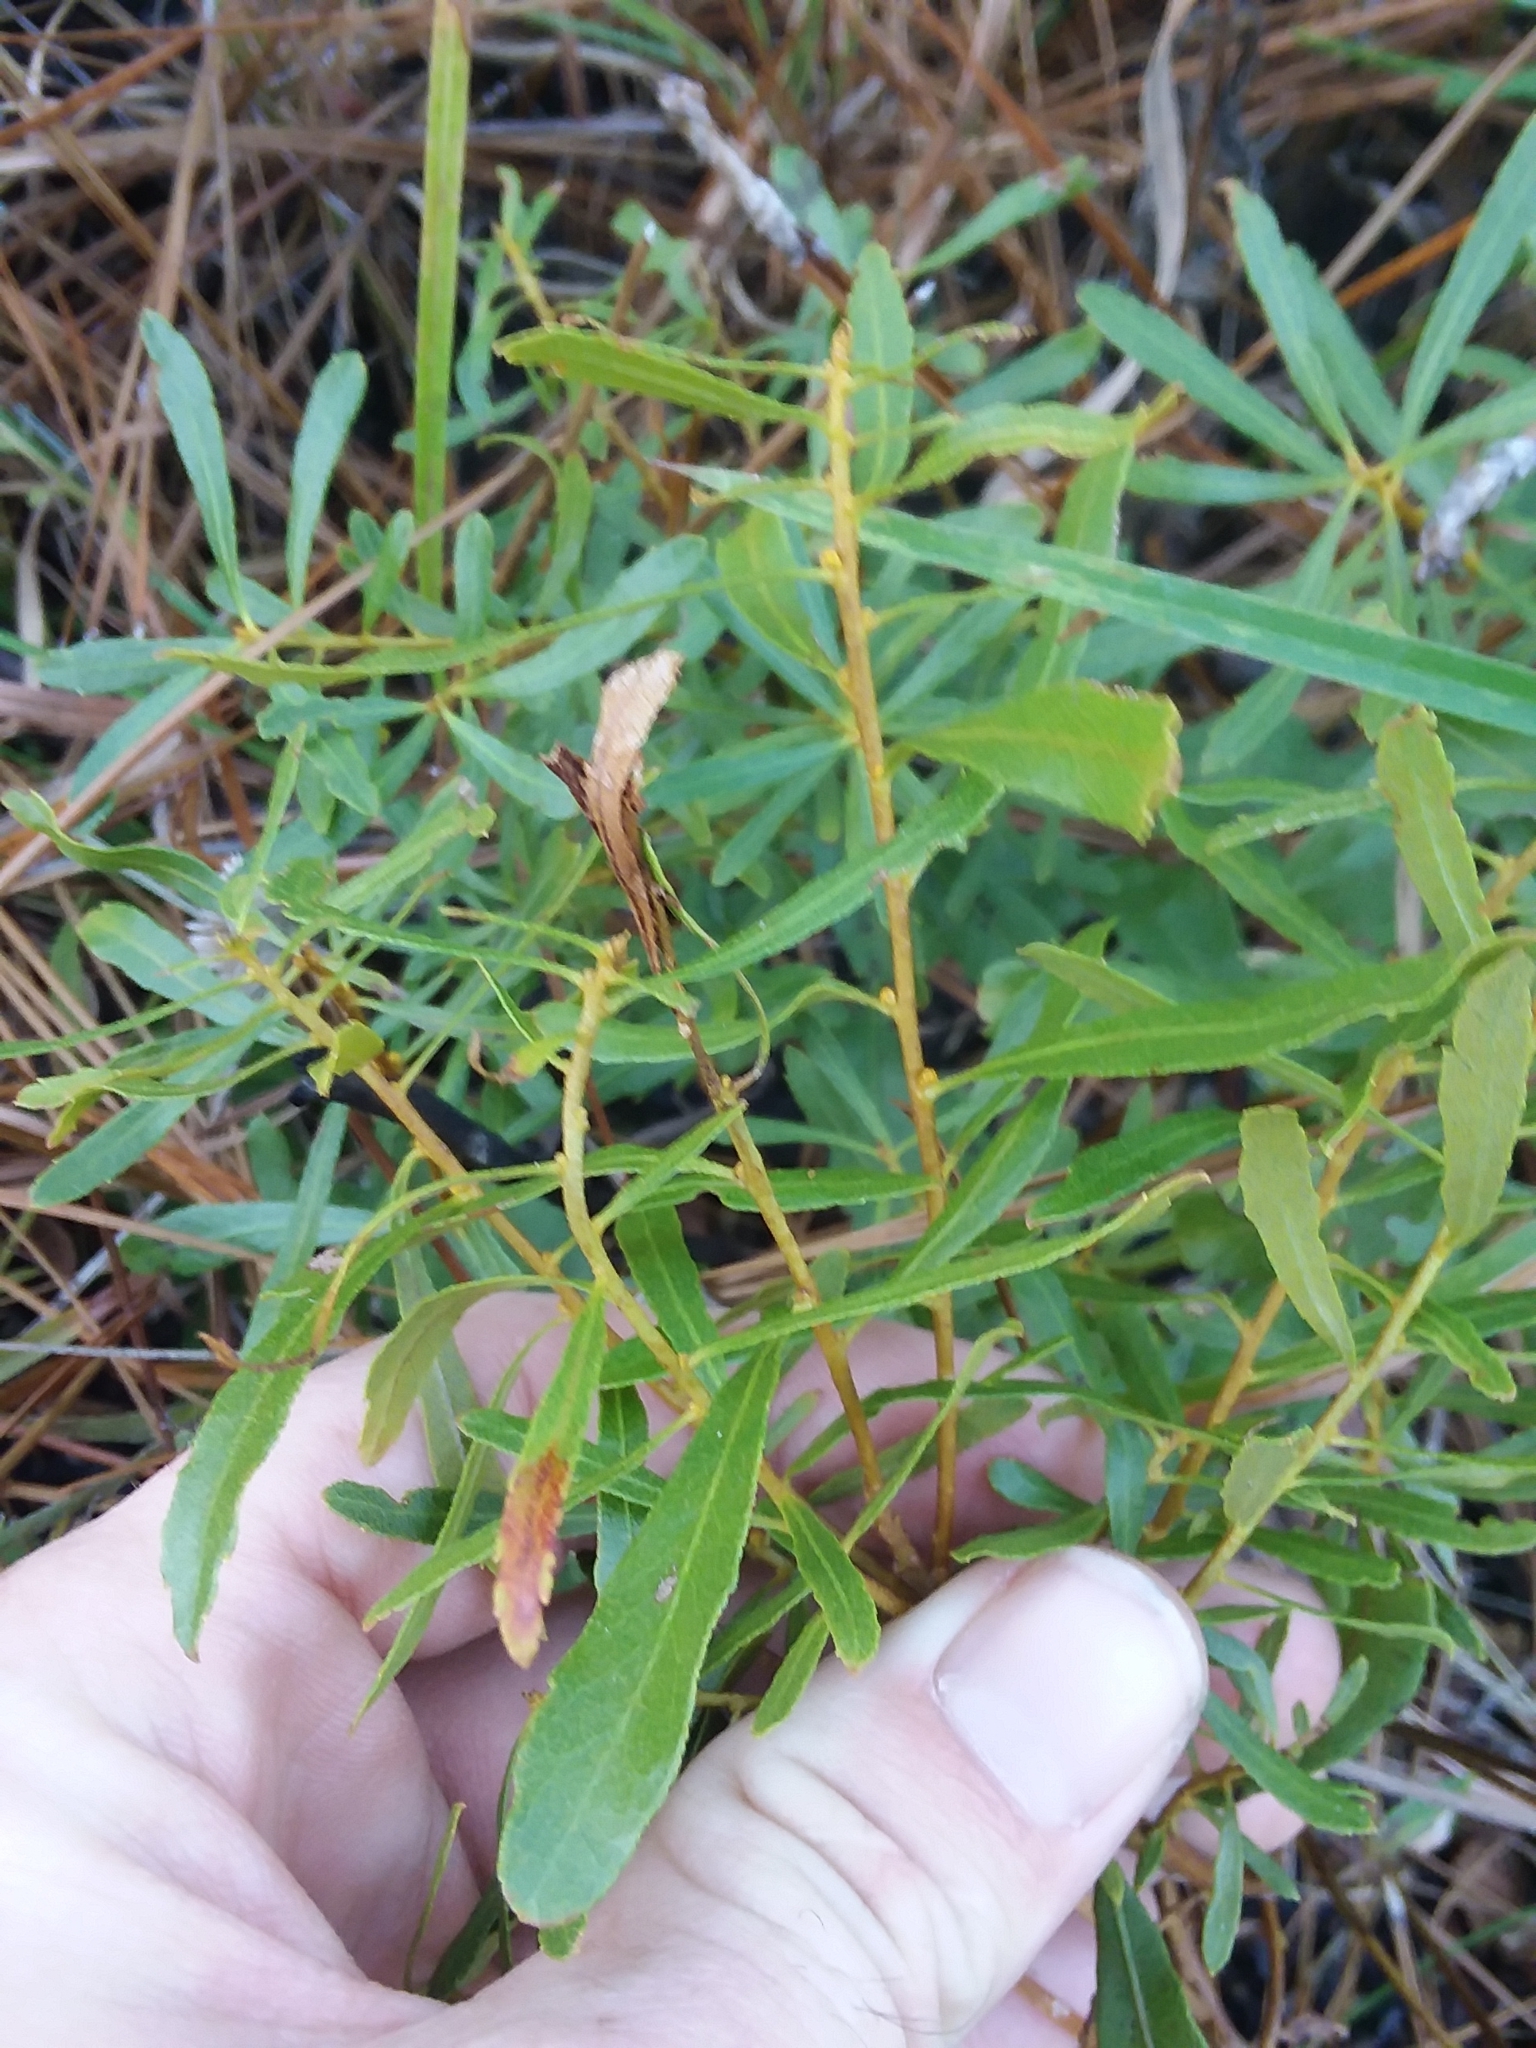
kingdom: Plantae
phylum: Tracheophyta
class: Magnoliopsida
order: Fagales
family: Myricaceae
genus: Morella
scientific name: Morella cerifera
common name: Wax myrtle
